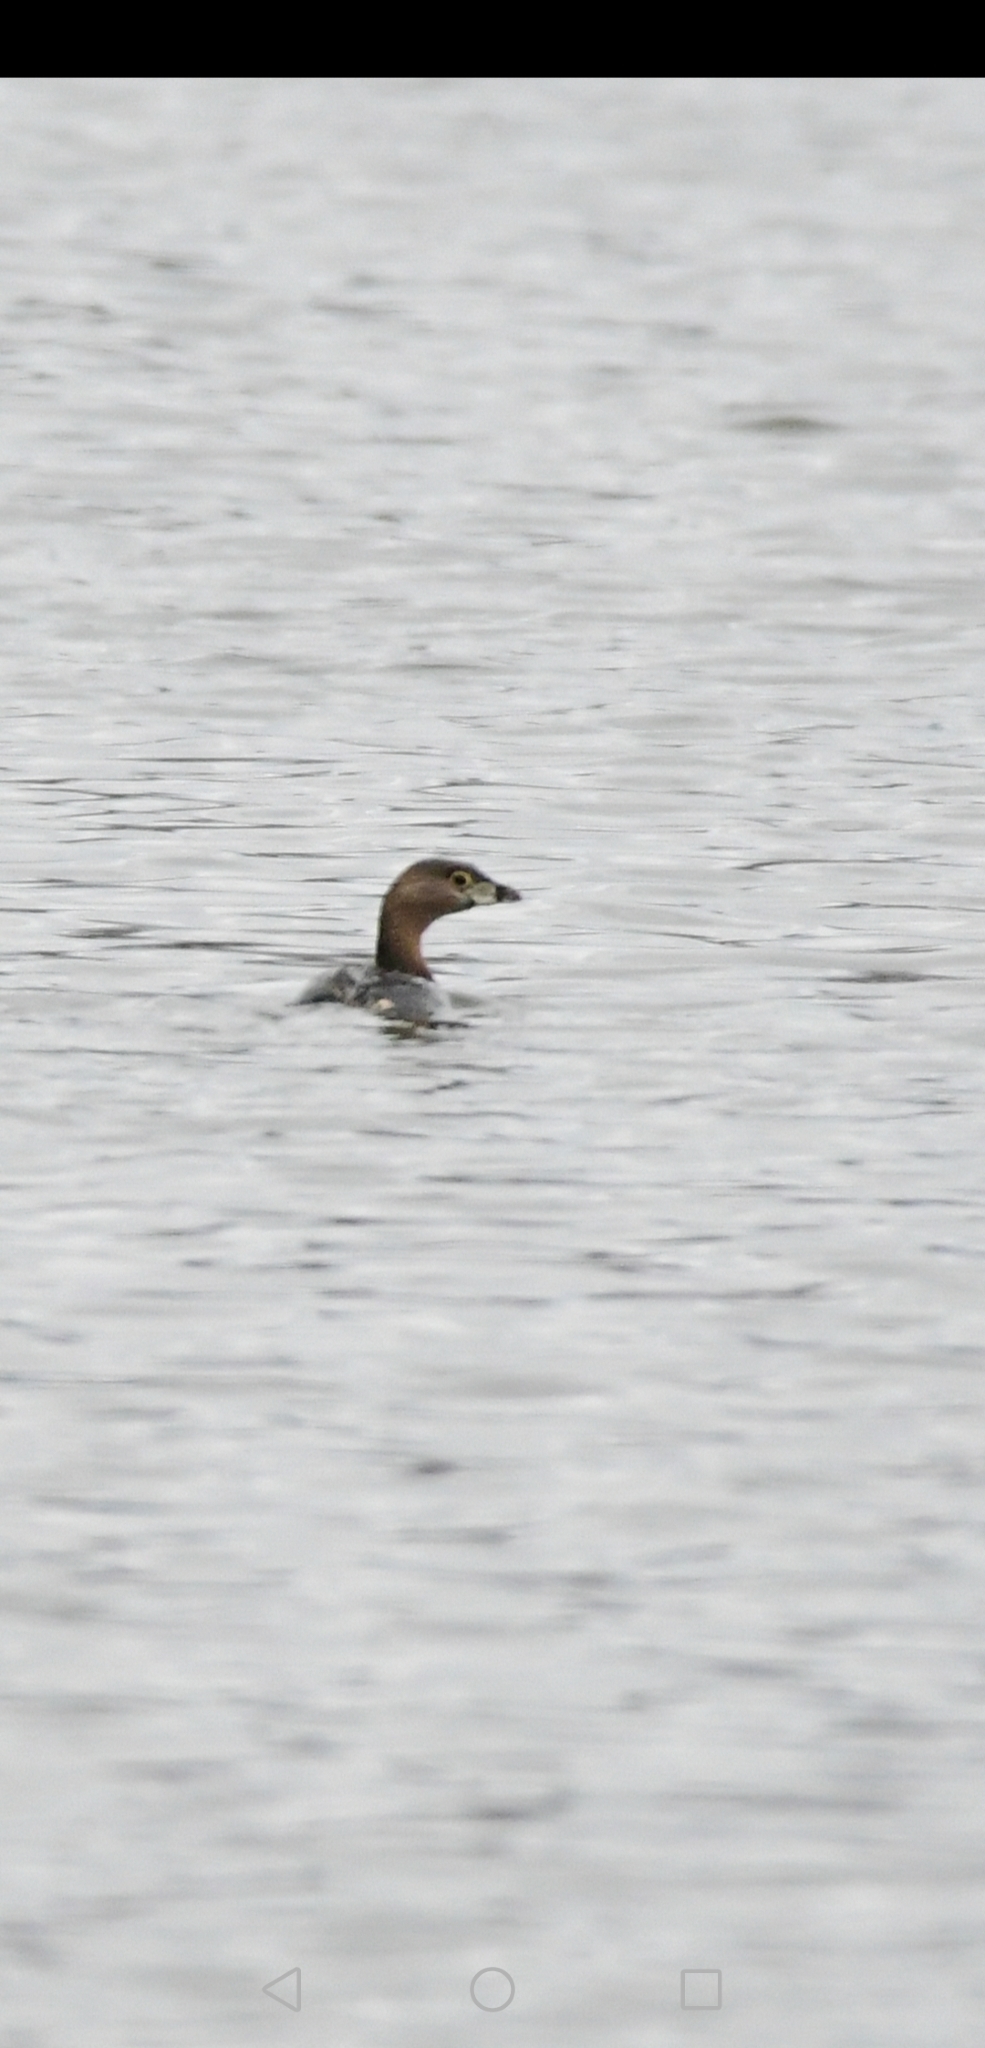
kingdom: Animalia
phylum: Chordata
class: Aves
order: Podicipediformes
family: Podicipedidae
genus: Podilymbus
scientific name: Podilymbus podiceps
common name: Pied-billed grebe
